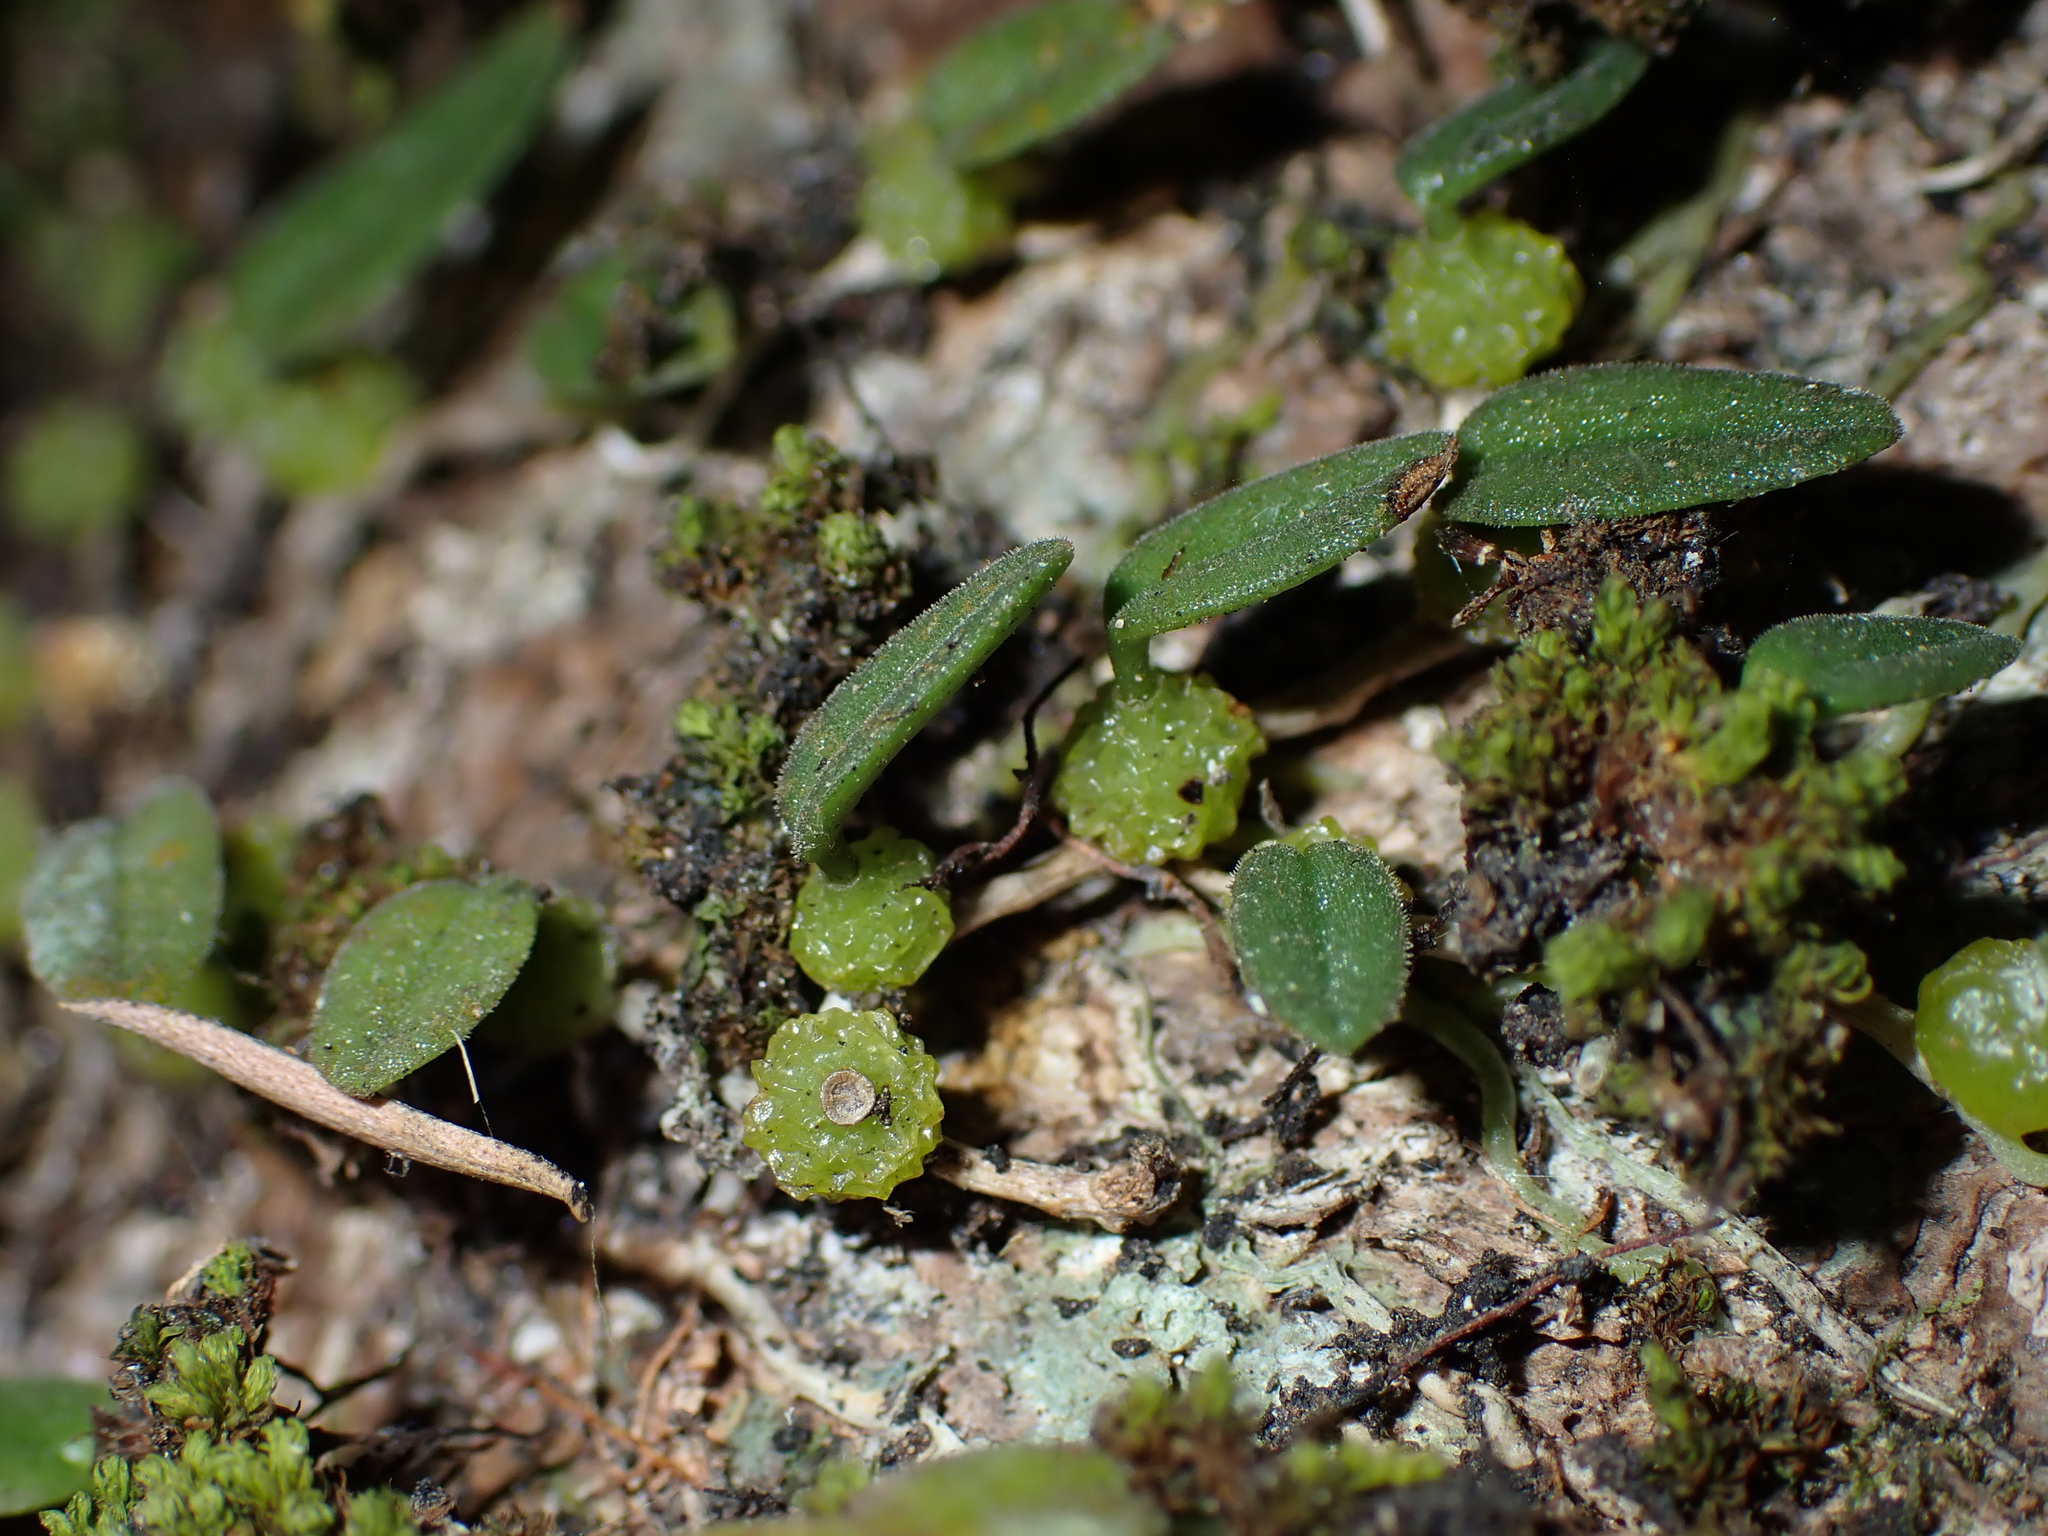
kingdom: Plantae
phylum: Tracheophyta
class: Liliopsida
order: Asparagales
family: Orchidaceae
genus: Bulbophyllum
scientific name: Bulbophyllum pygmaeum
